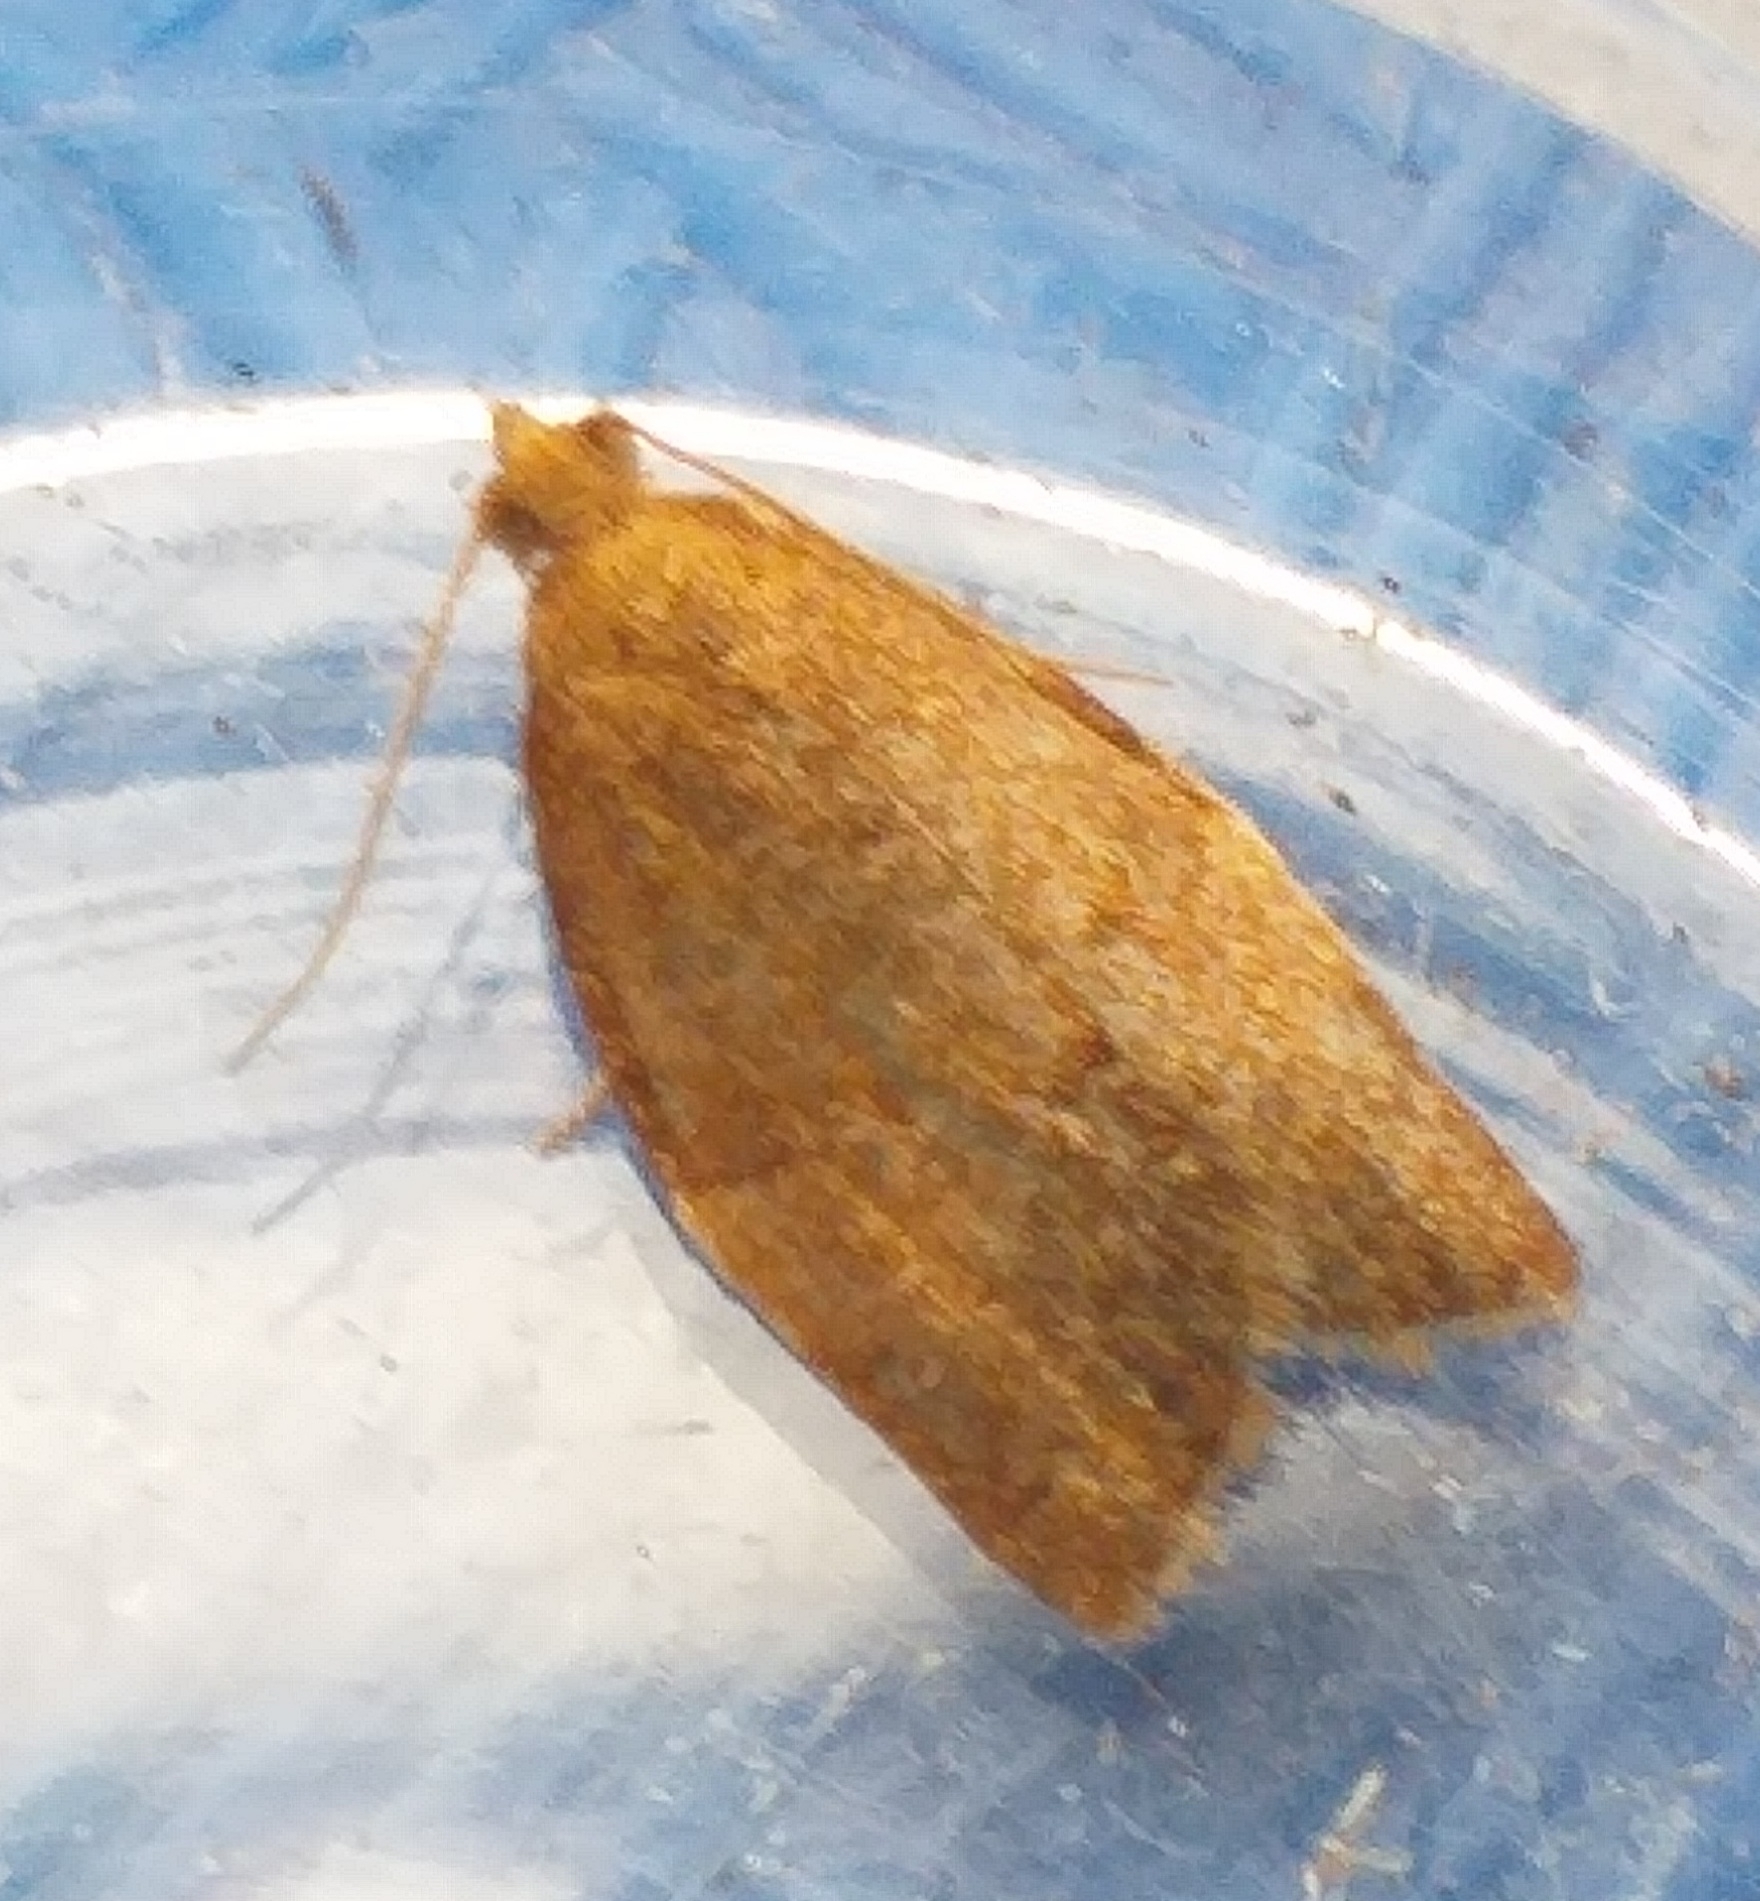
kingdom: Animalia
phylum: Arthropoda
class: Insecta
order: Lepidoptera
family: Tortricidae
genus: Clepsis
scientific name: Clepsis consimilana
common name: Privet tortrix
